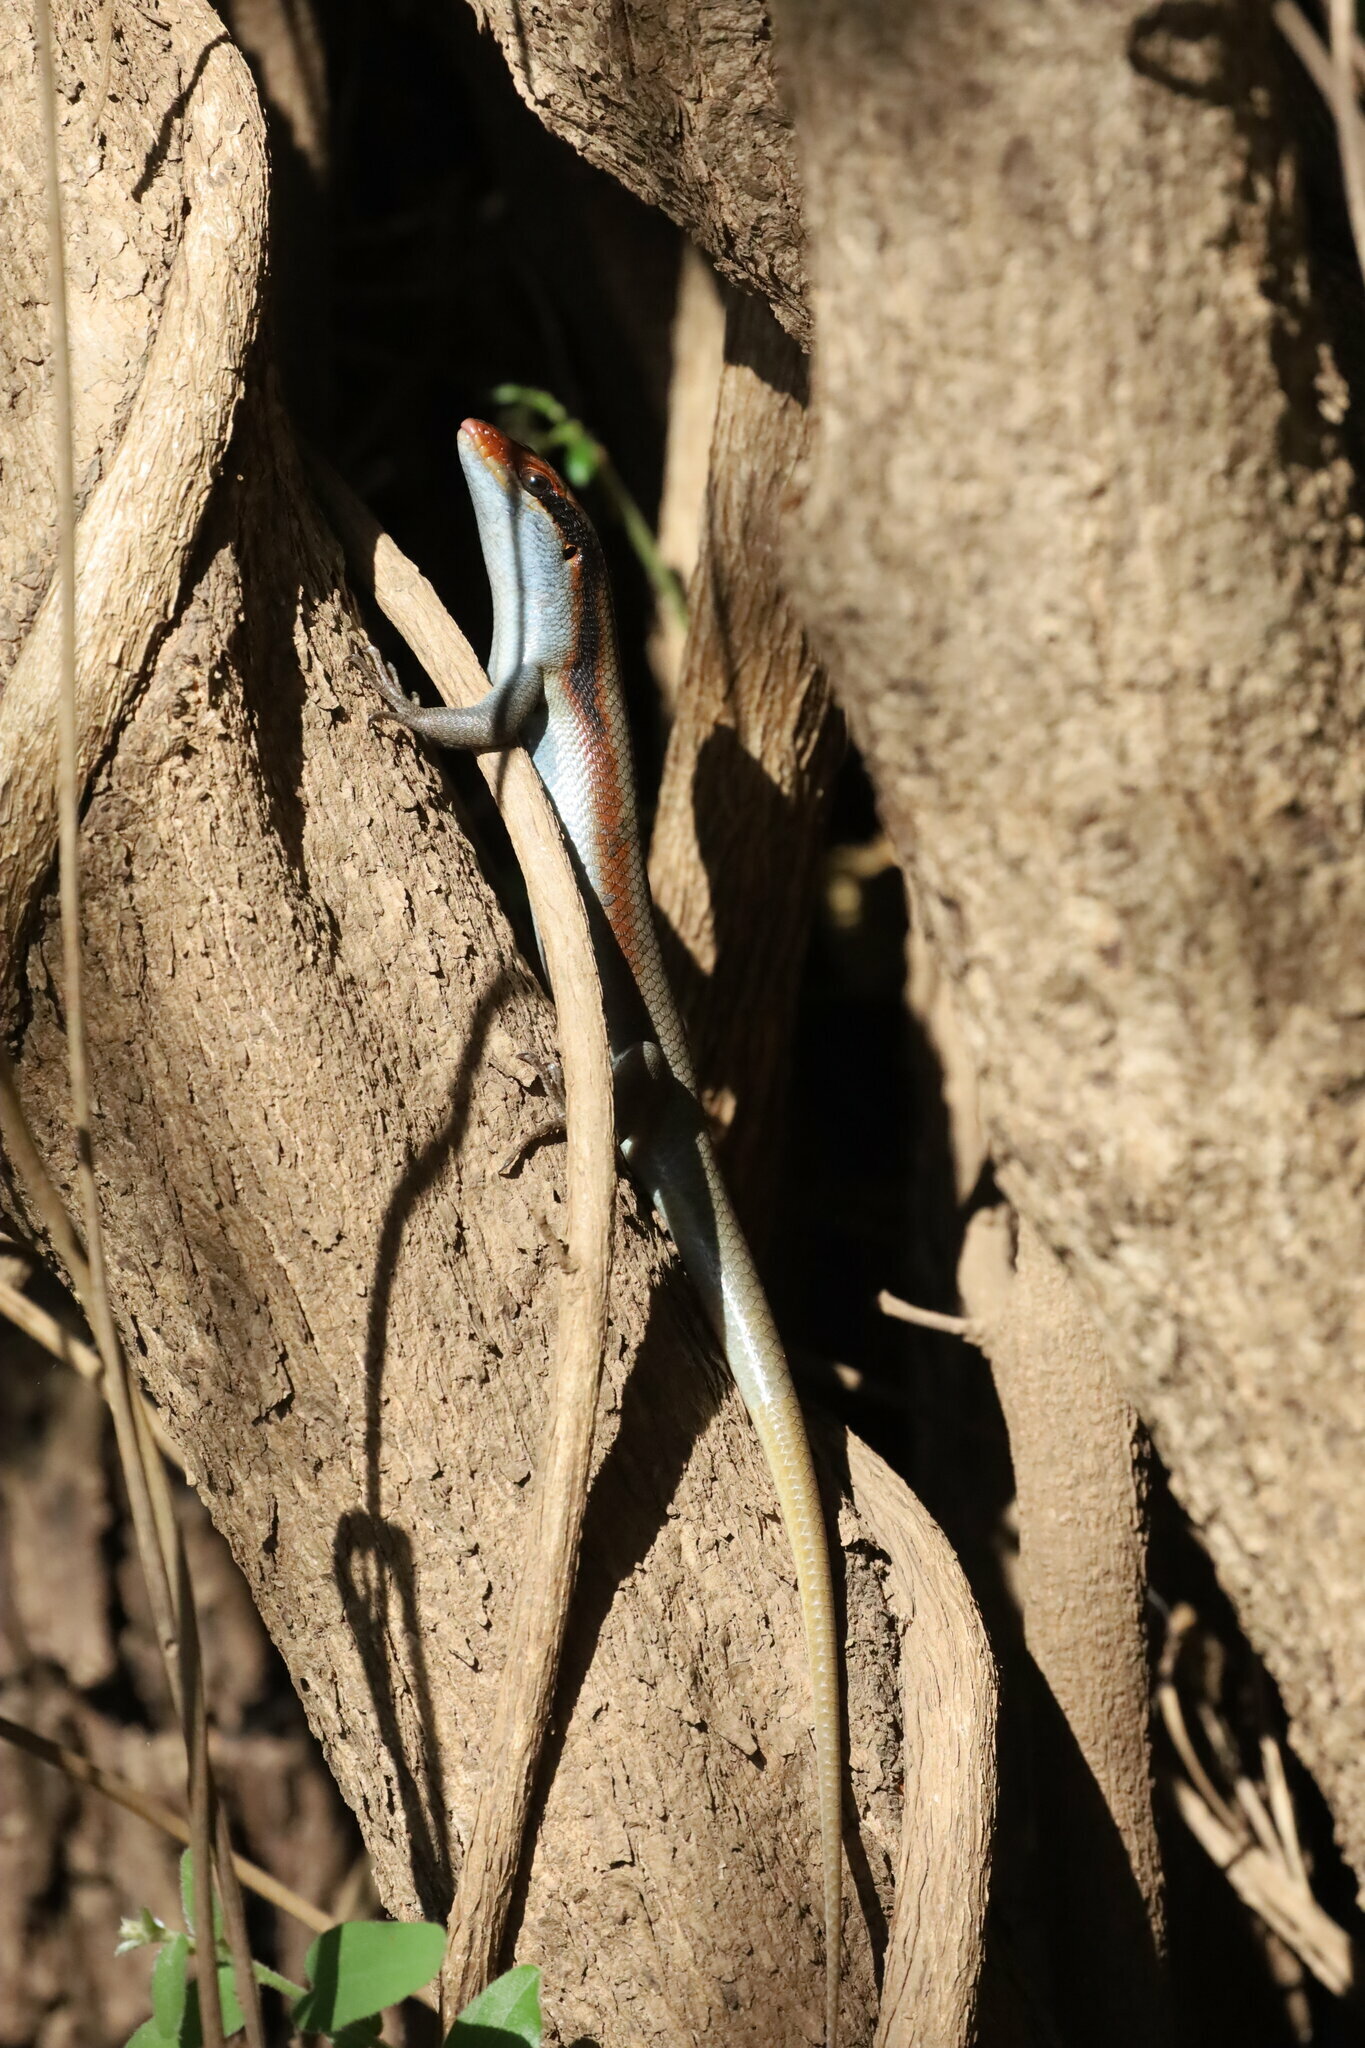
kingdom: Animalia
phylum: Chordata
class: Squamata
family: Scincidae
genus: Trachylepis
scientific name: Trachylepis wahlbergii
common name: Wahlberg’s striped skink
